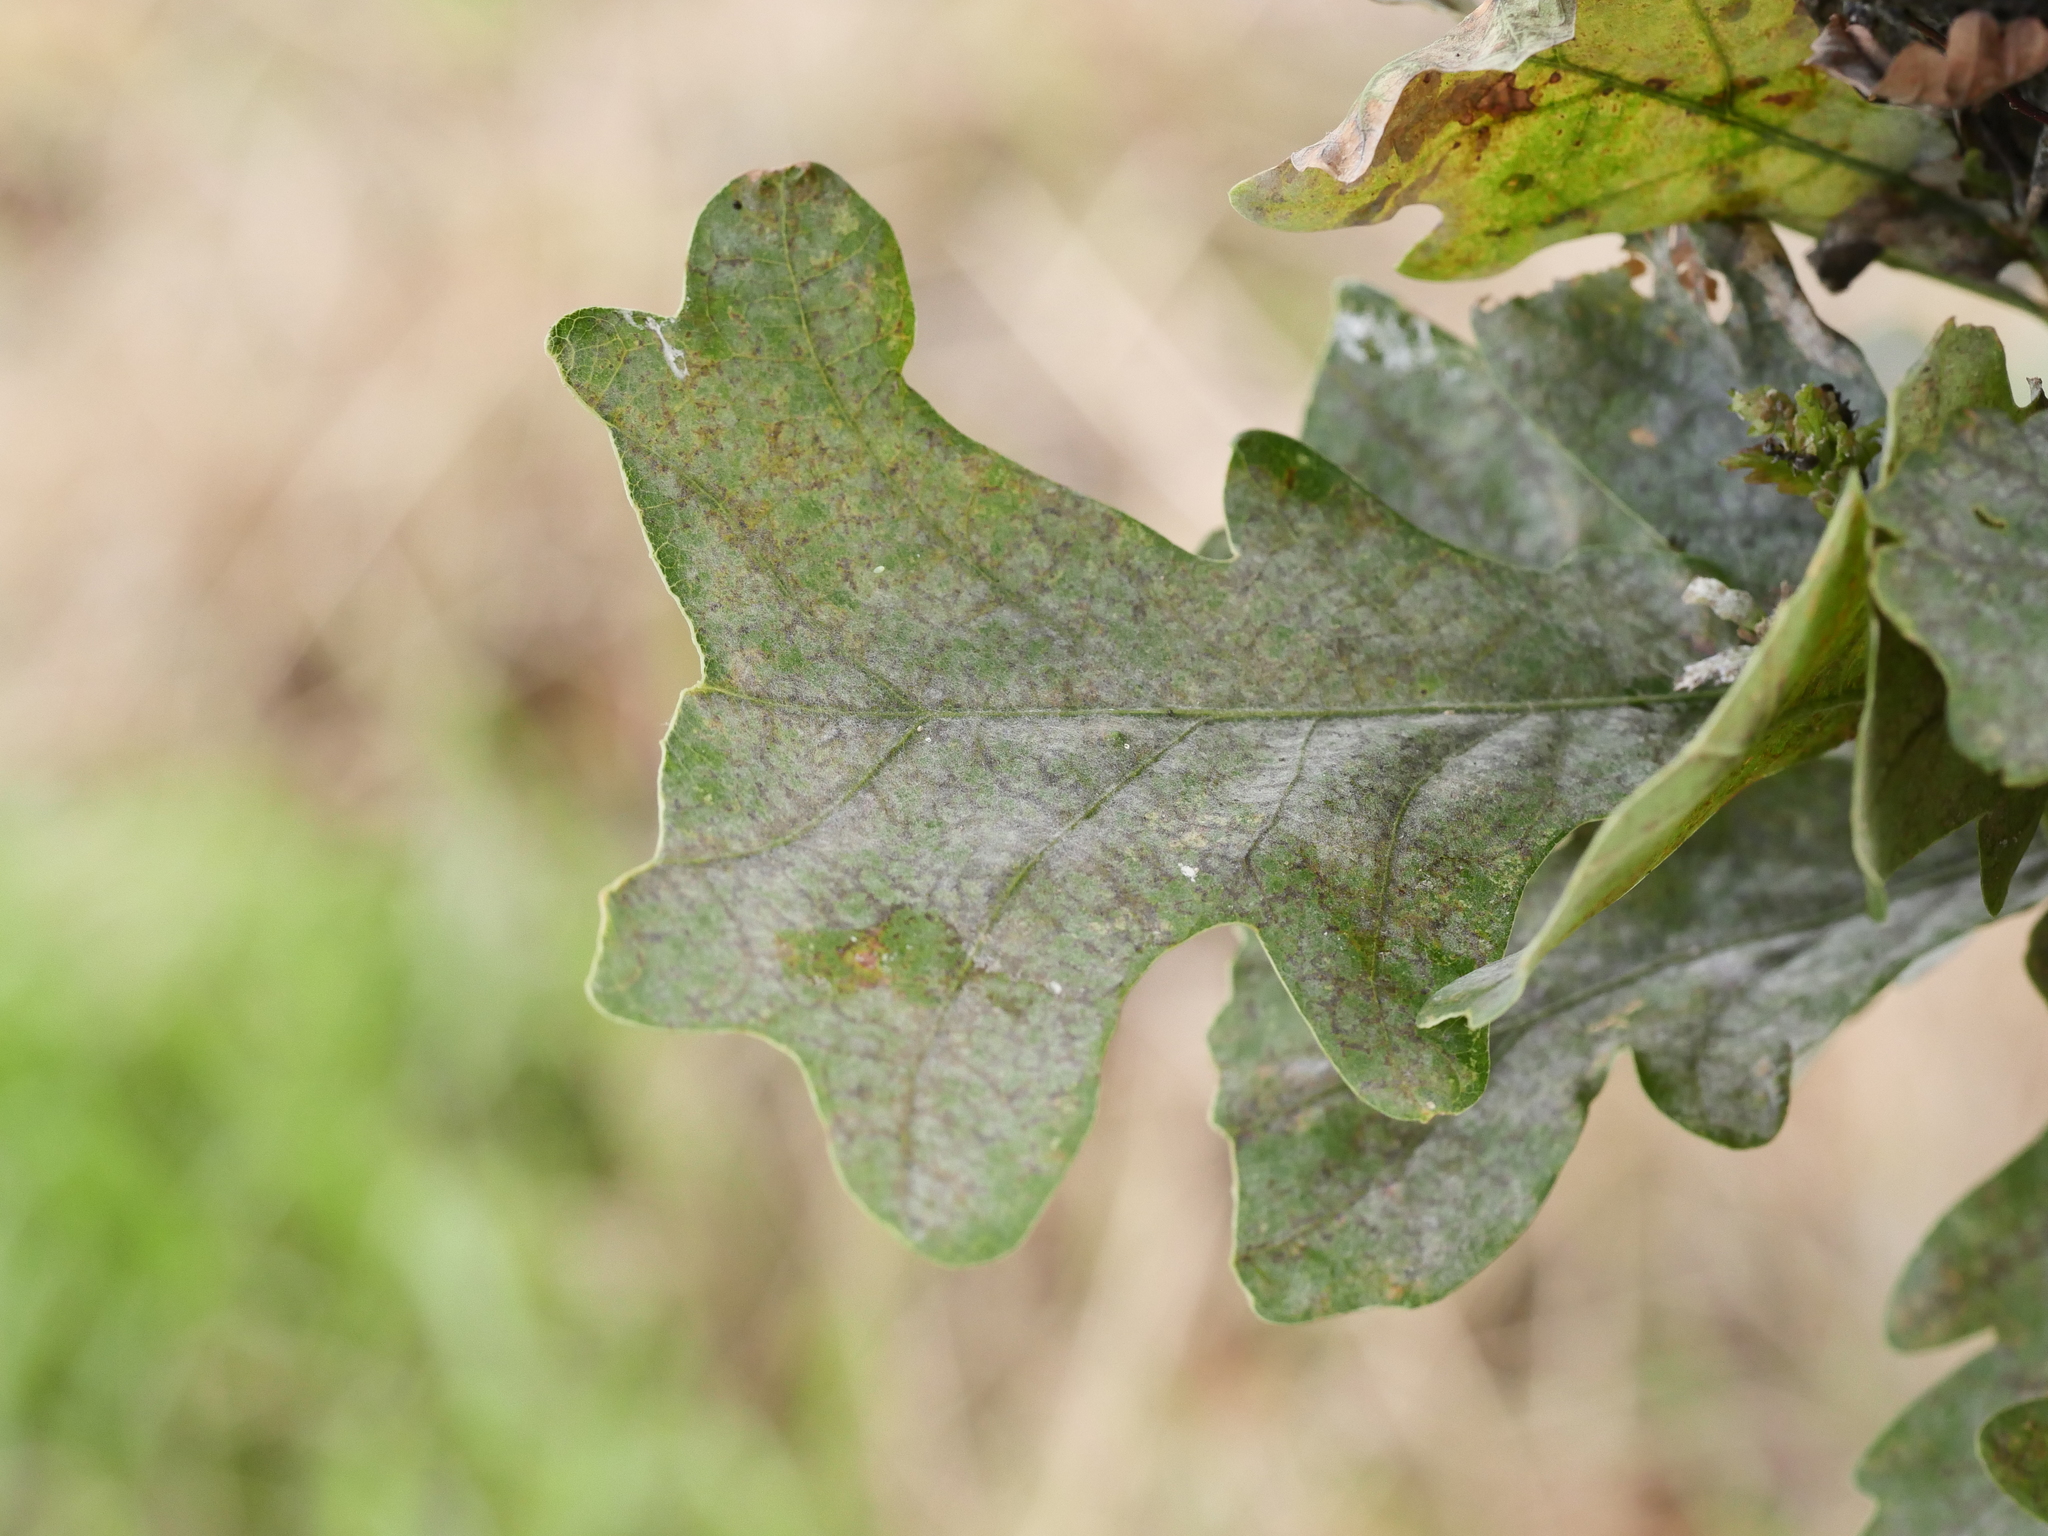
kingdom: Fungi
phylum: Ascomycota
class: Leotiomycetes
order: Helotiales
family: Erysiphaceae
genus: Erysiphe
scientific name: Erysiphe
